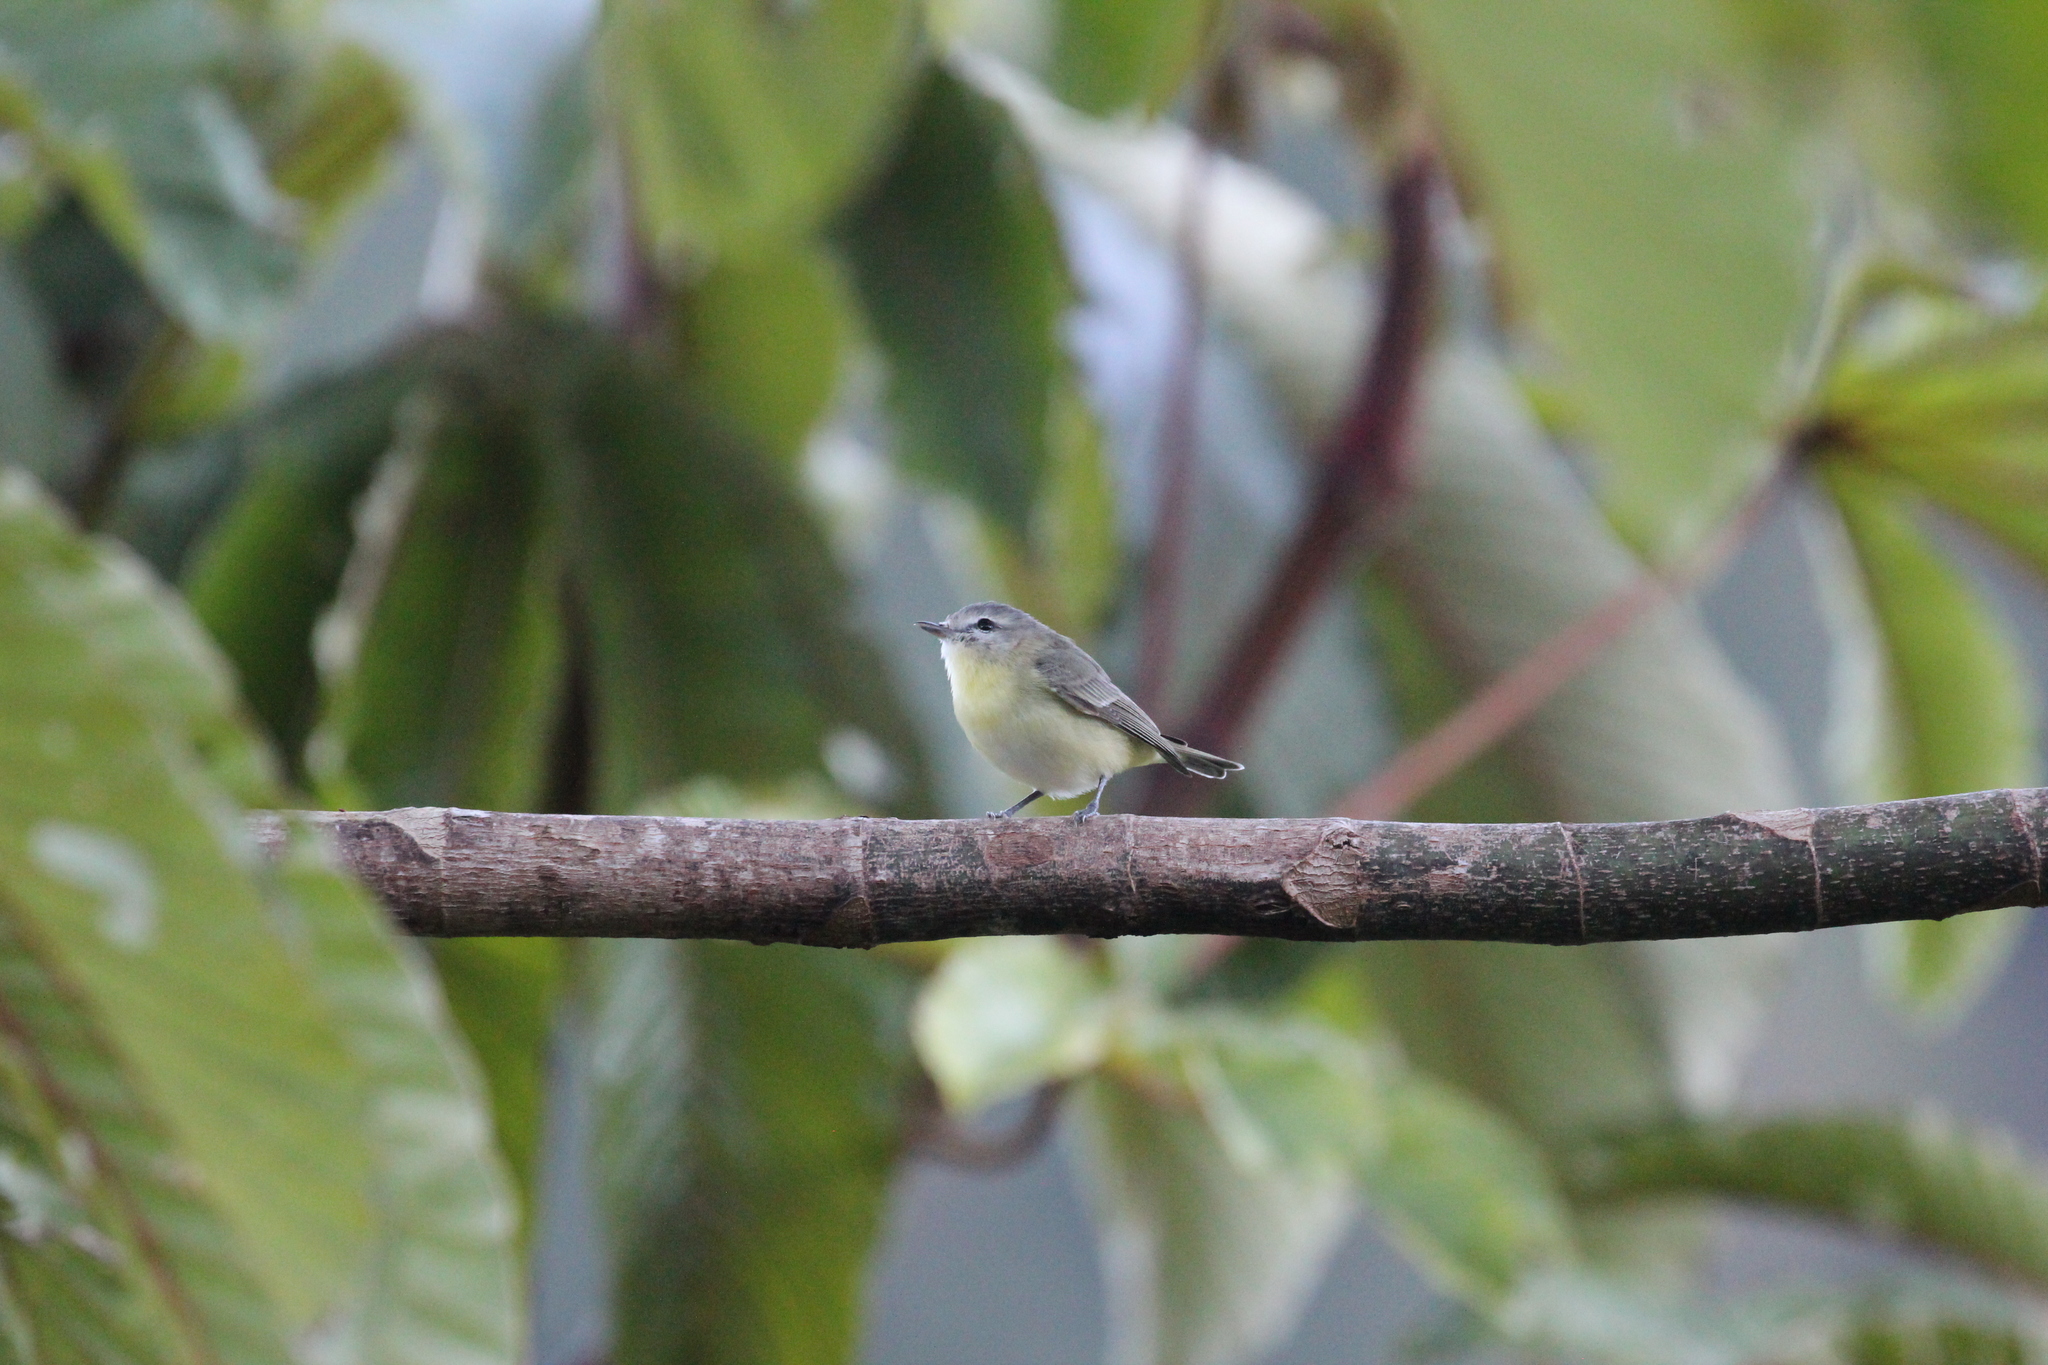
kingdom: Animalia
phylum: Chordata
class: Aves
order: Passeriformes
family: Vireonidae
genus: Vireo
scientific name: Vireo philadelphicus
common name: Philadelphia vireo
